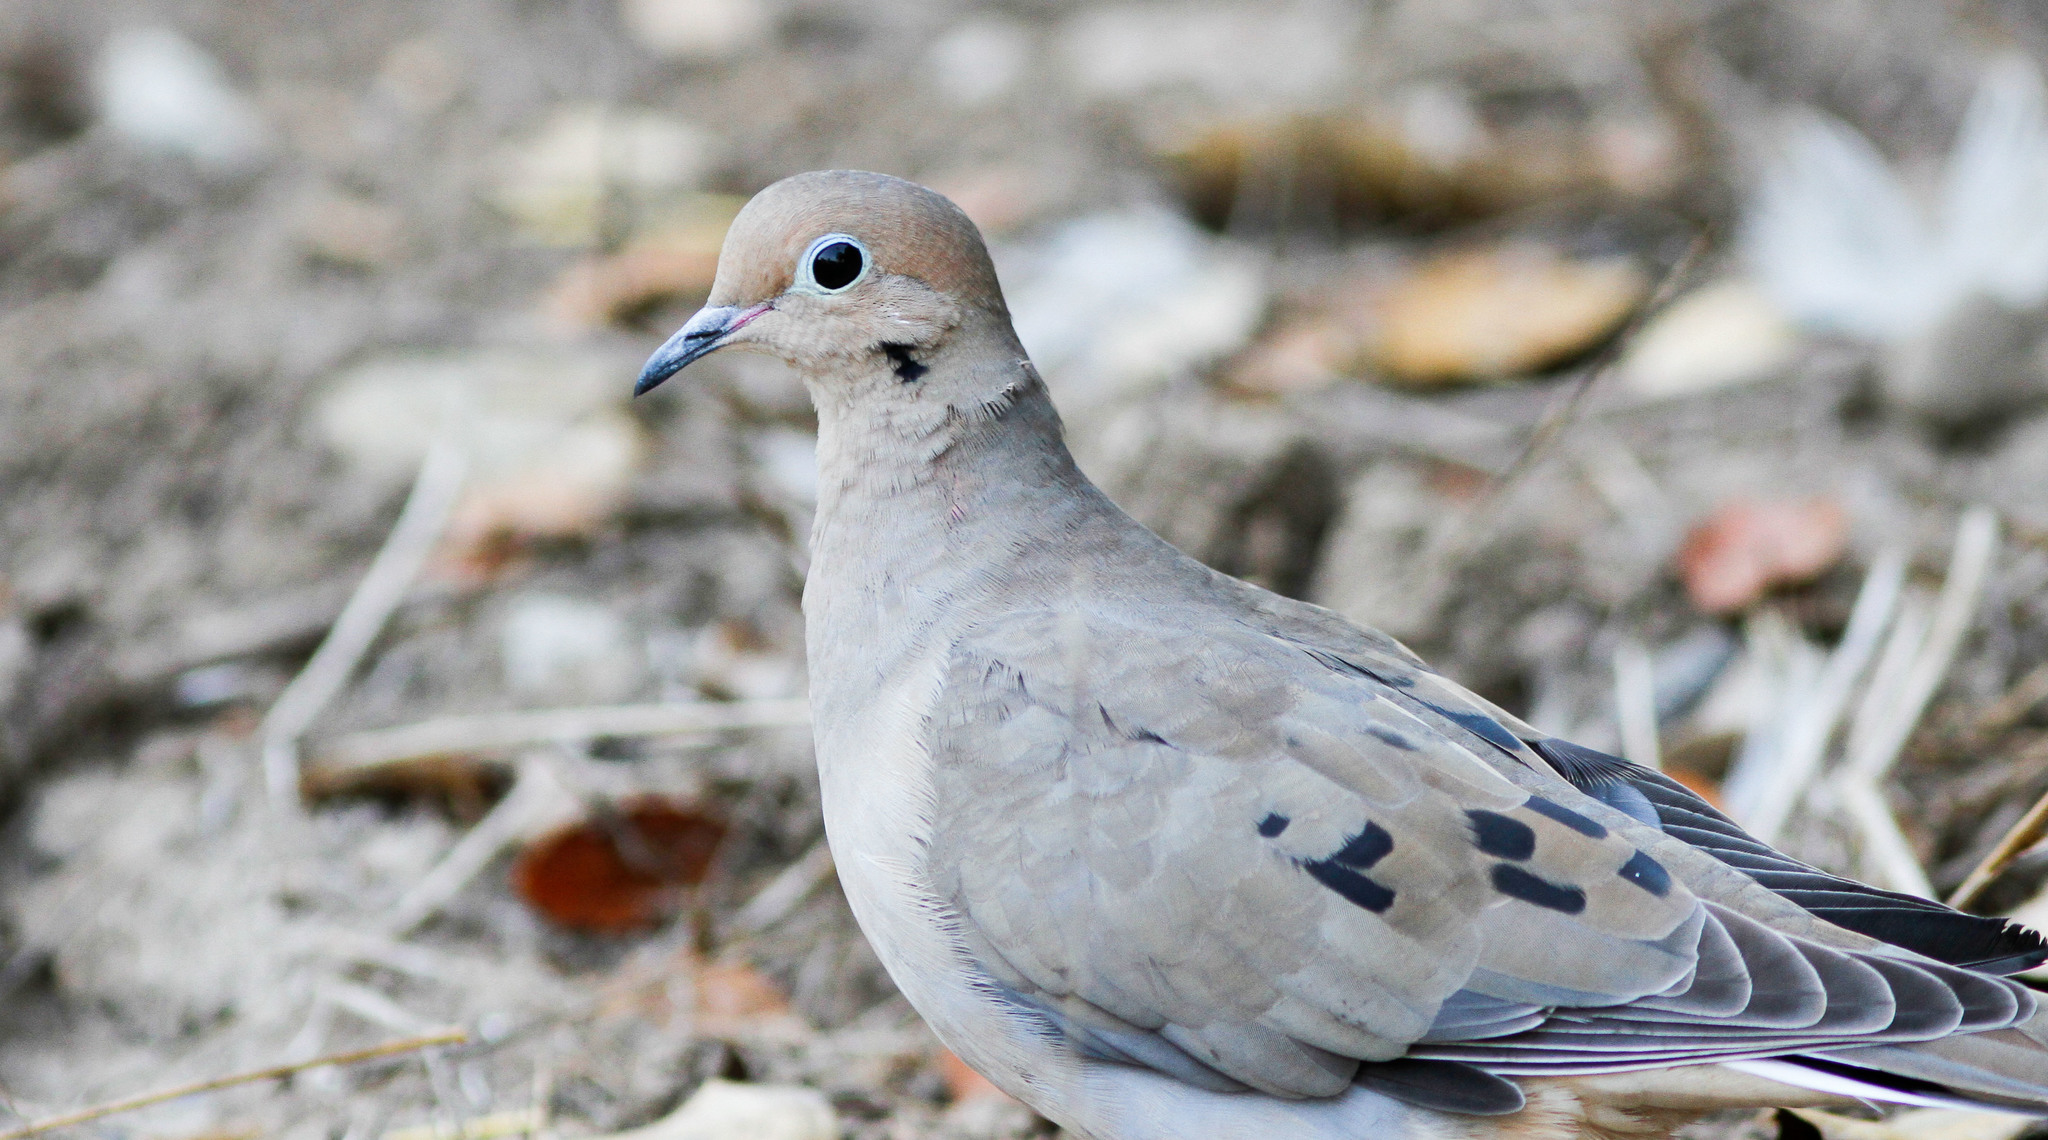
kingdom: Animalia
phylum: Chordata
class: Aves
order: Columbiformes
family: Columbidae
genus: Zenaida
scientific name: Zenaida macroura
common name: Mourning dove
